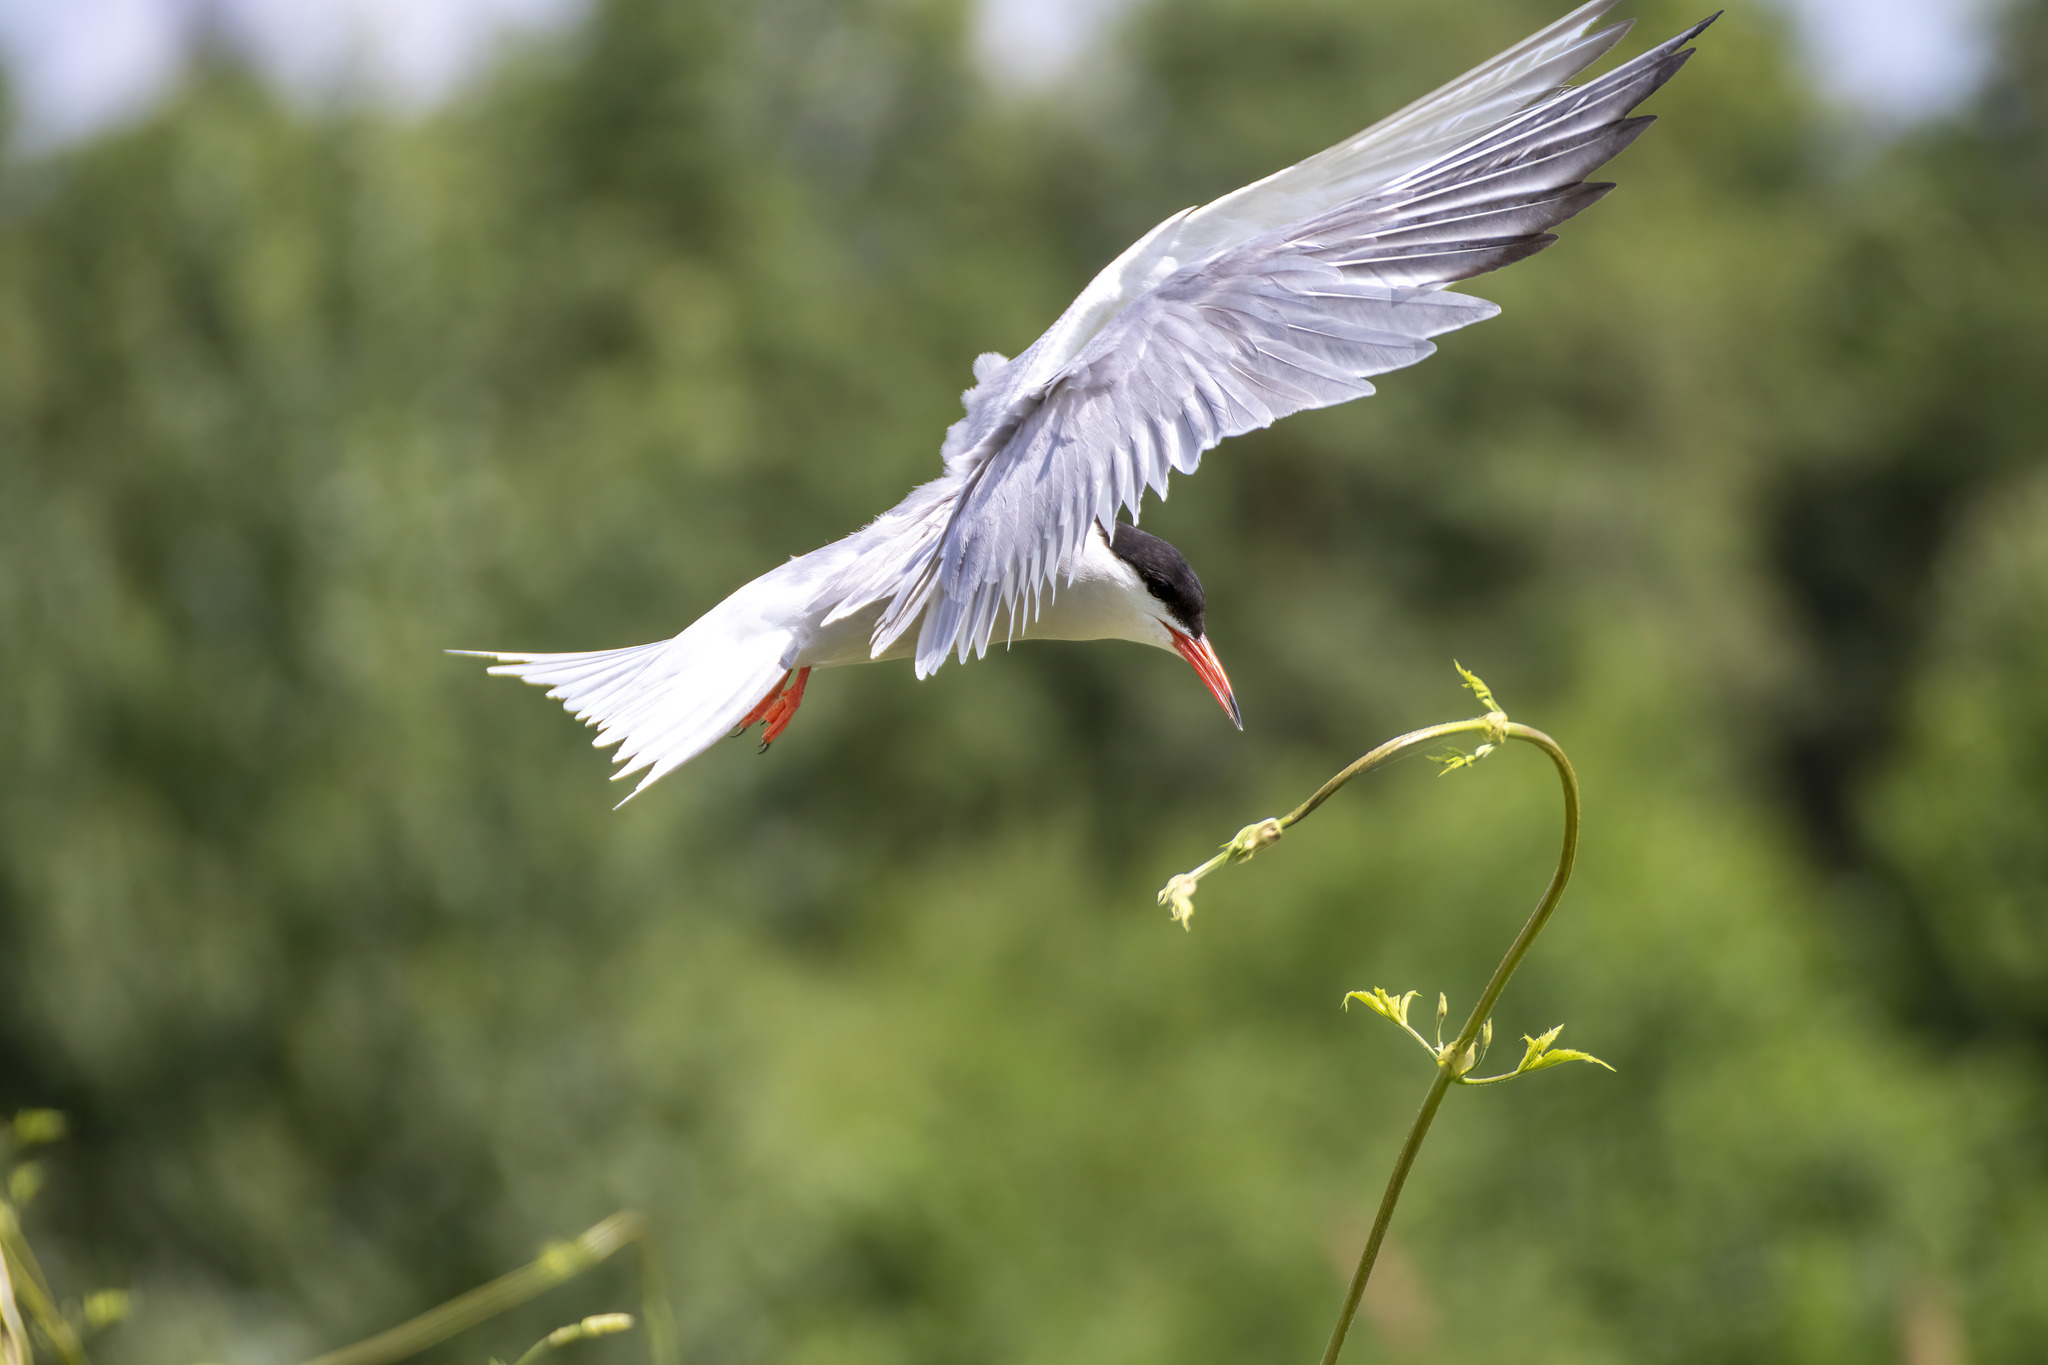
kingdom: Animalia
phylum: Chordata
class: Aves
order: Charadriiformes
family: Laridae
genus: Sterna
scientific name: Sterna hirundo
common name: Common tern
